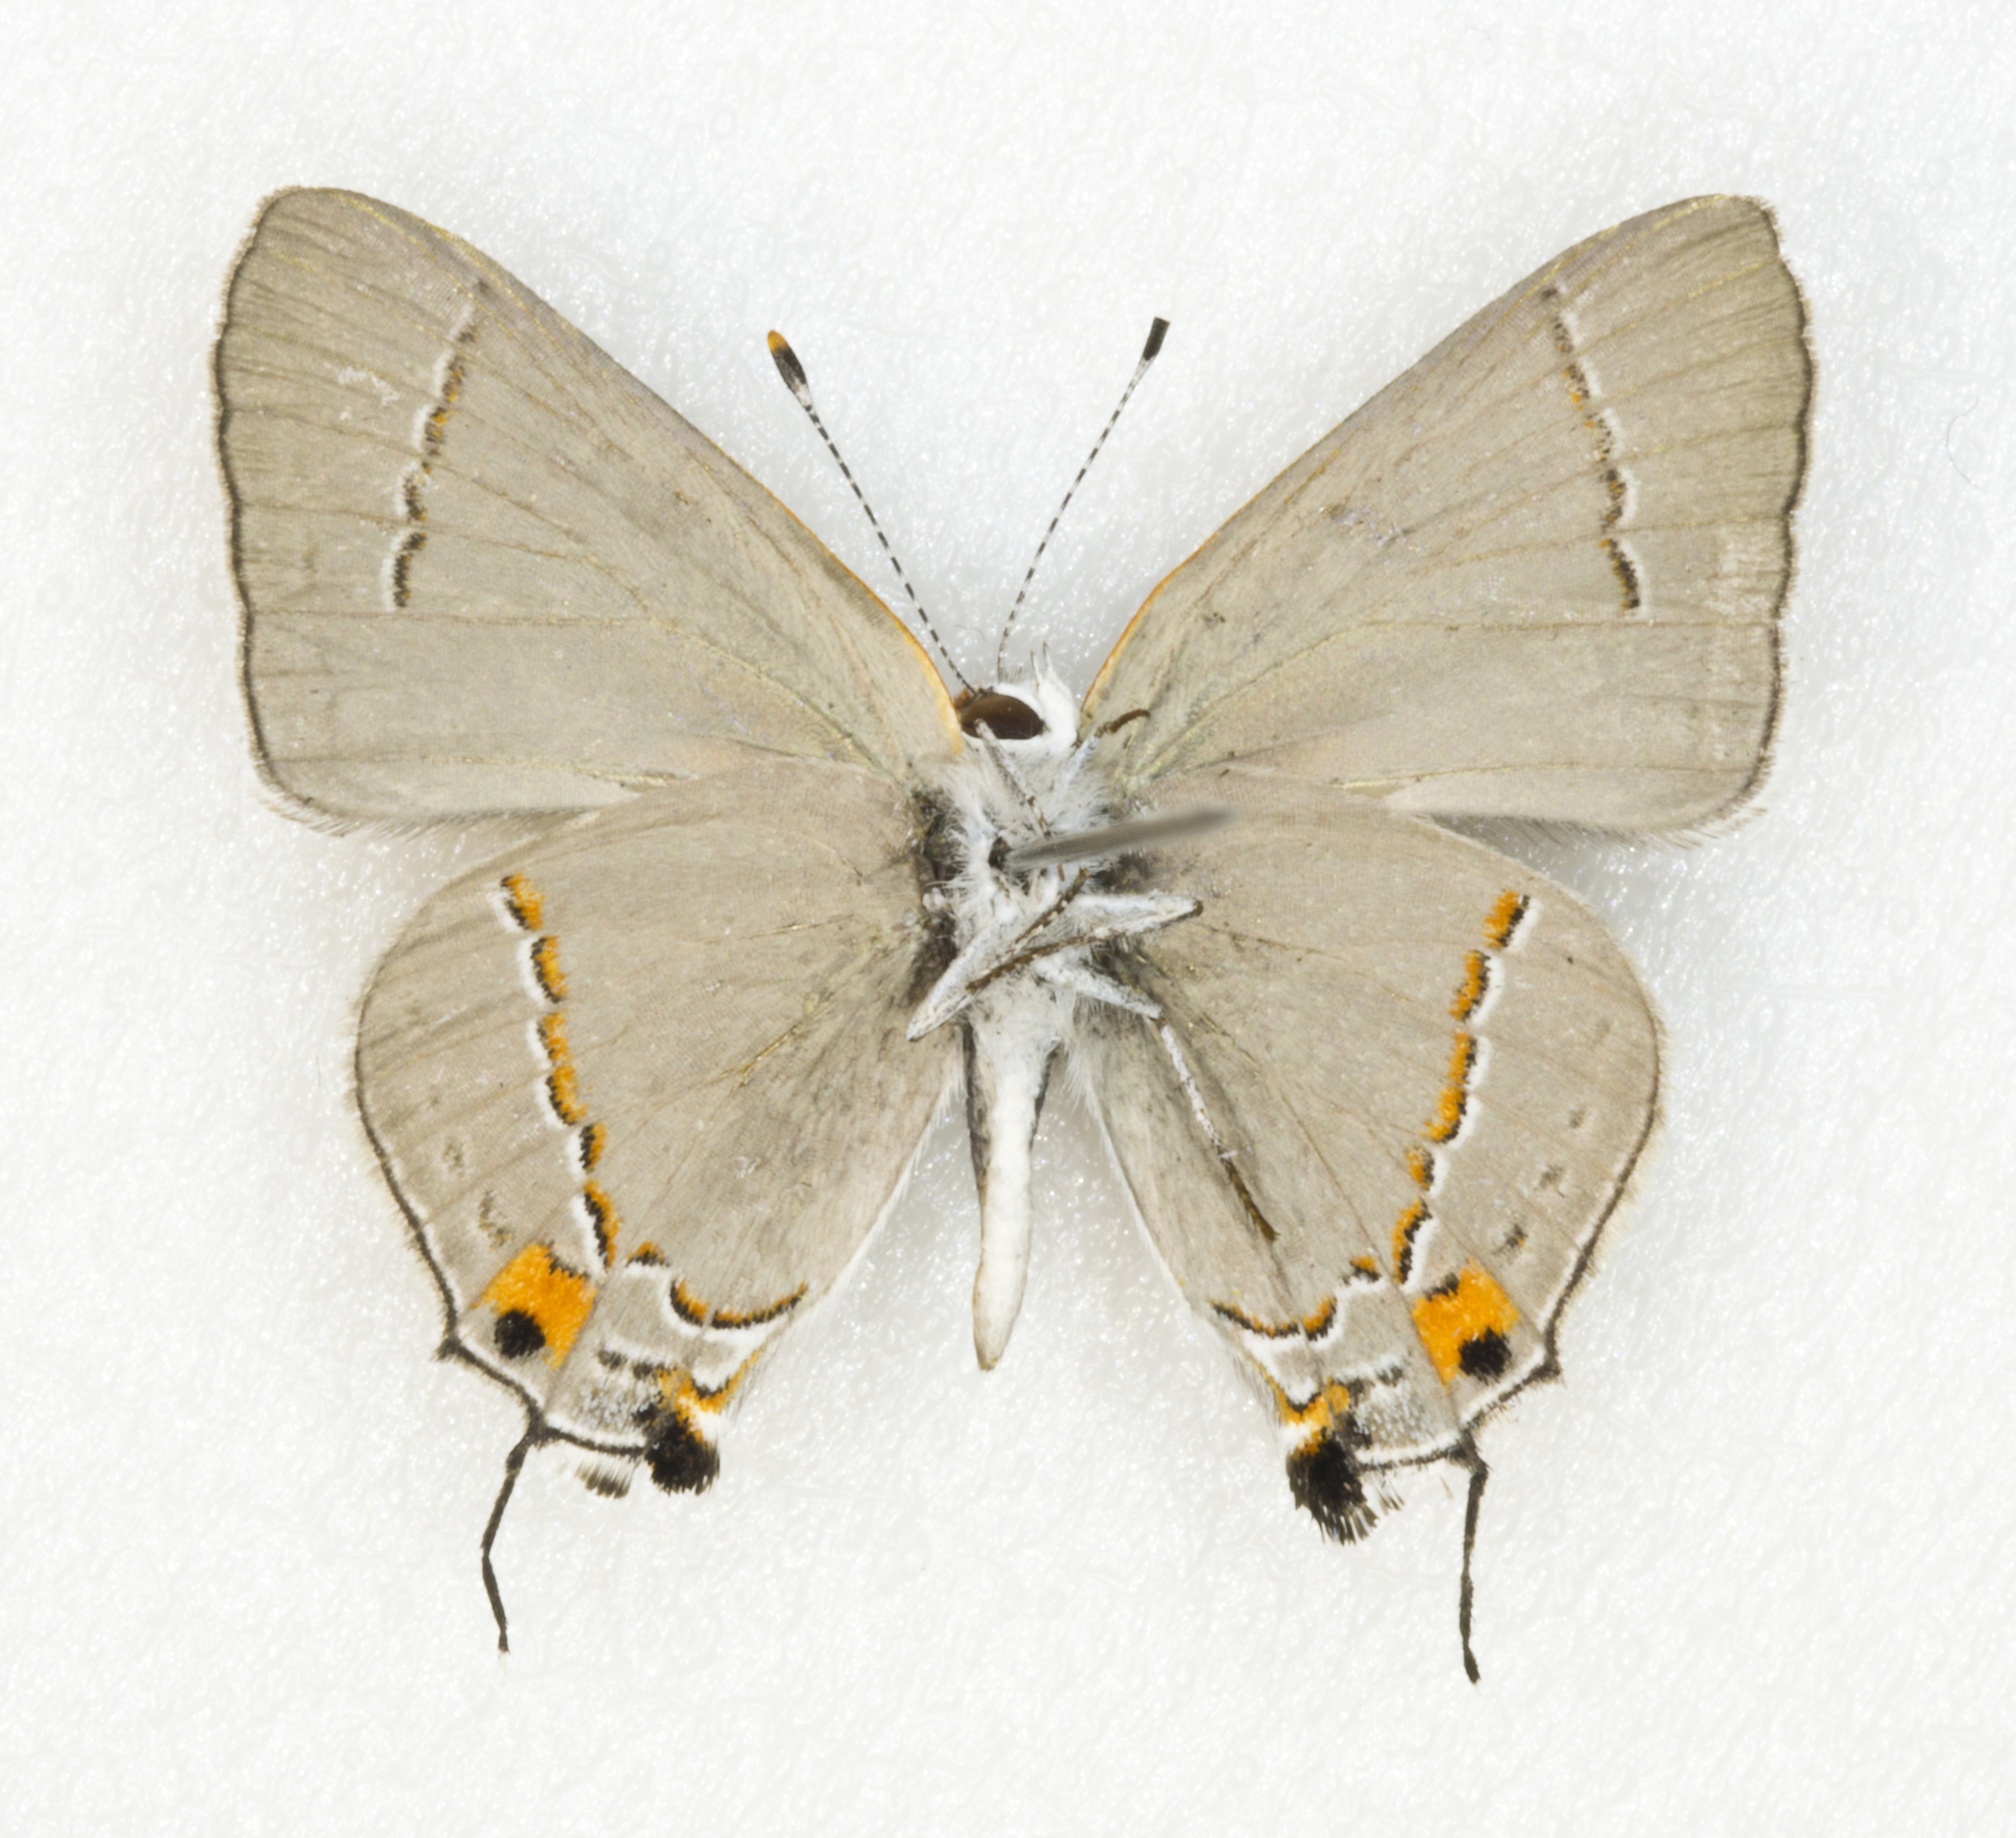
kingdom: Animalia
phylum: Arthropoda
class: Insecta
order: Lepidoptera
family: Lycaenidae
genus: Strymon
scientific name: Strymon melinus
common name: Gray hairstreak
